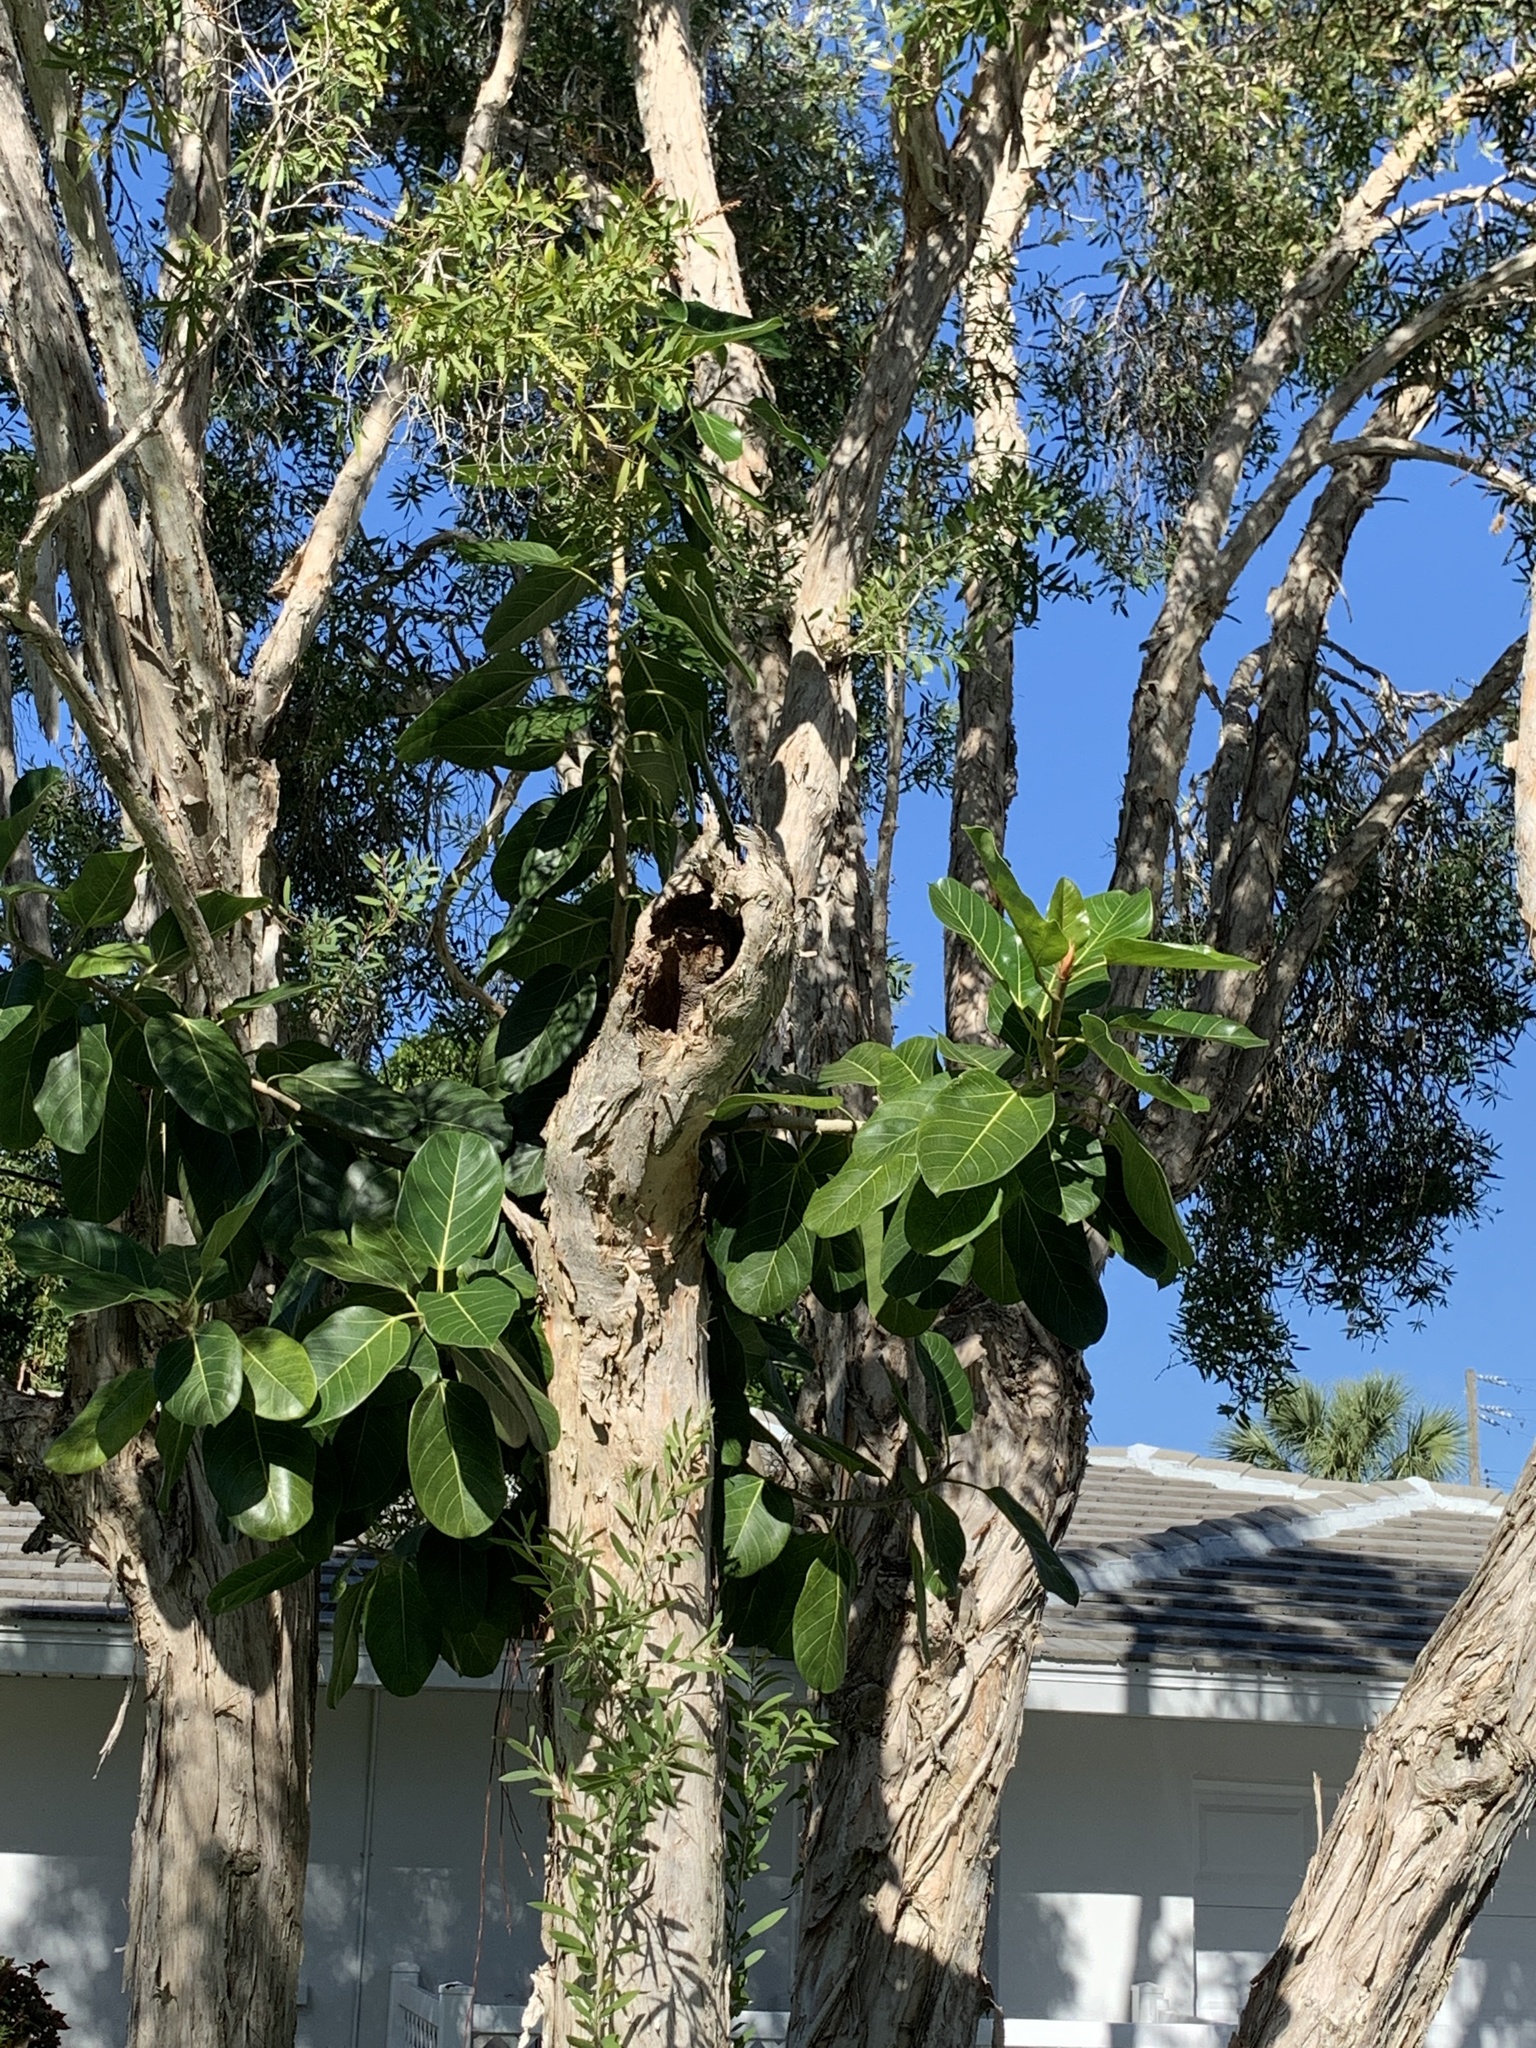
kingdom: Plantae
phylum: Tracheophyta
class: Magnoliopsida
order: Rosales
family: Moraceae
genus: Ficus
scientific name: Ficus benghalensis
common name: Indian banyan
